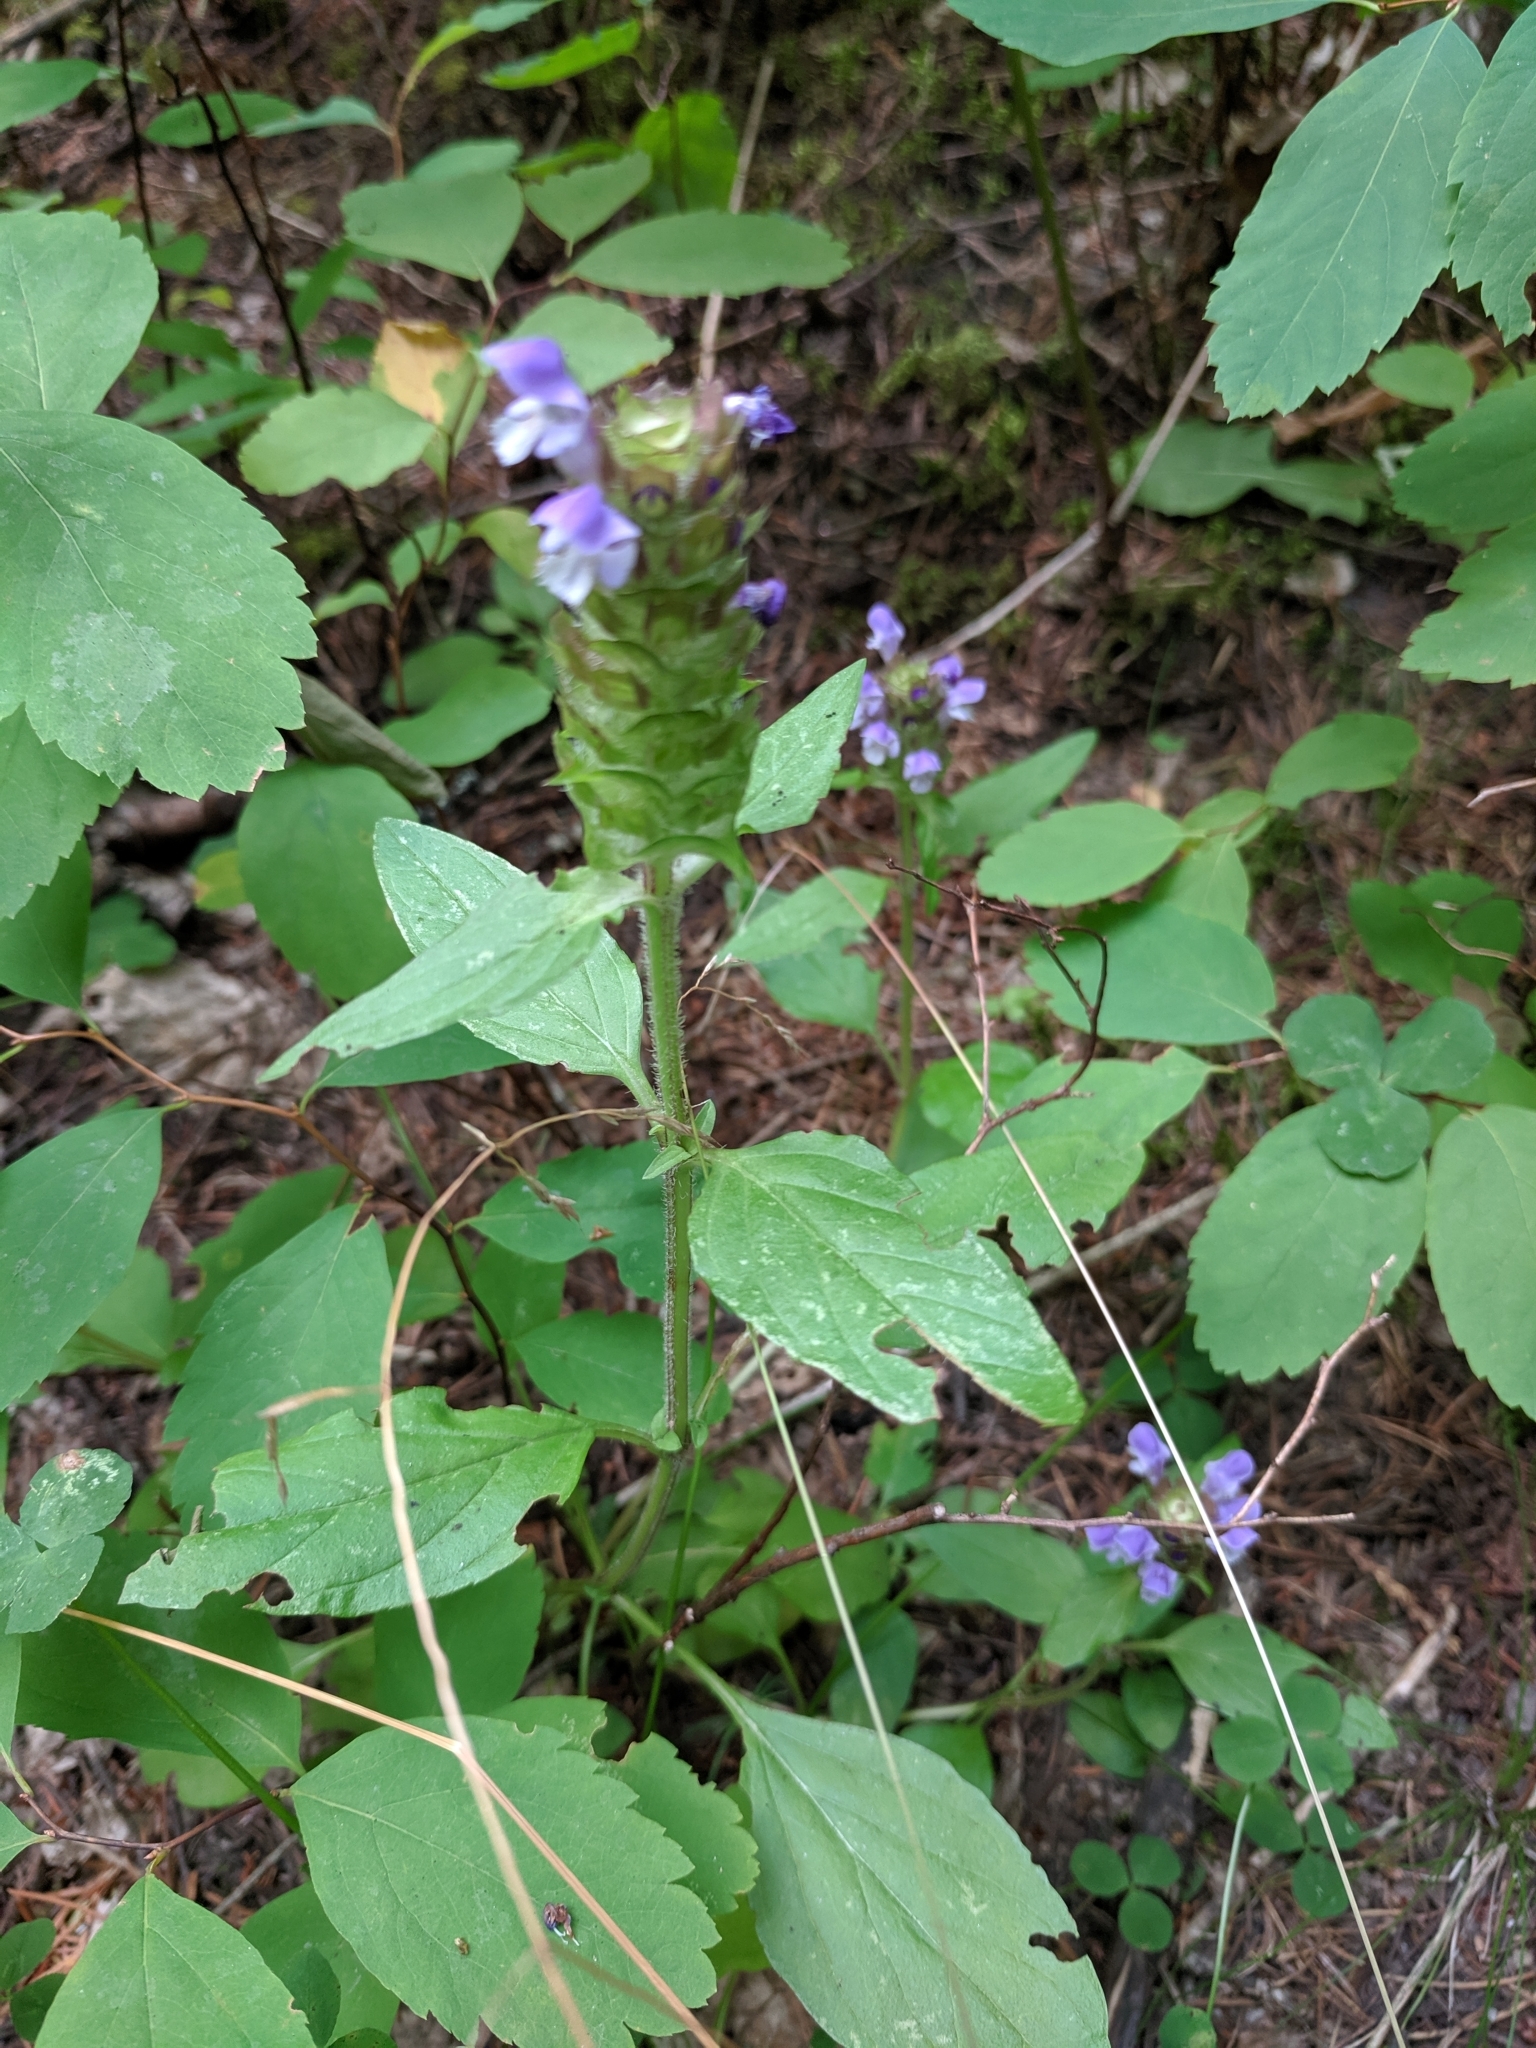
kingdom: Plantae
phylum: Tracheophyta
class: Magnoliopsida
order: Lamiales
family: Lamiaceae
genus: Prunella
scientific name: Prunella vulgaris
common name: Heal-all
